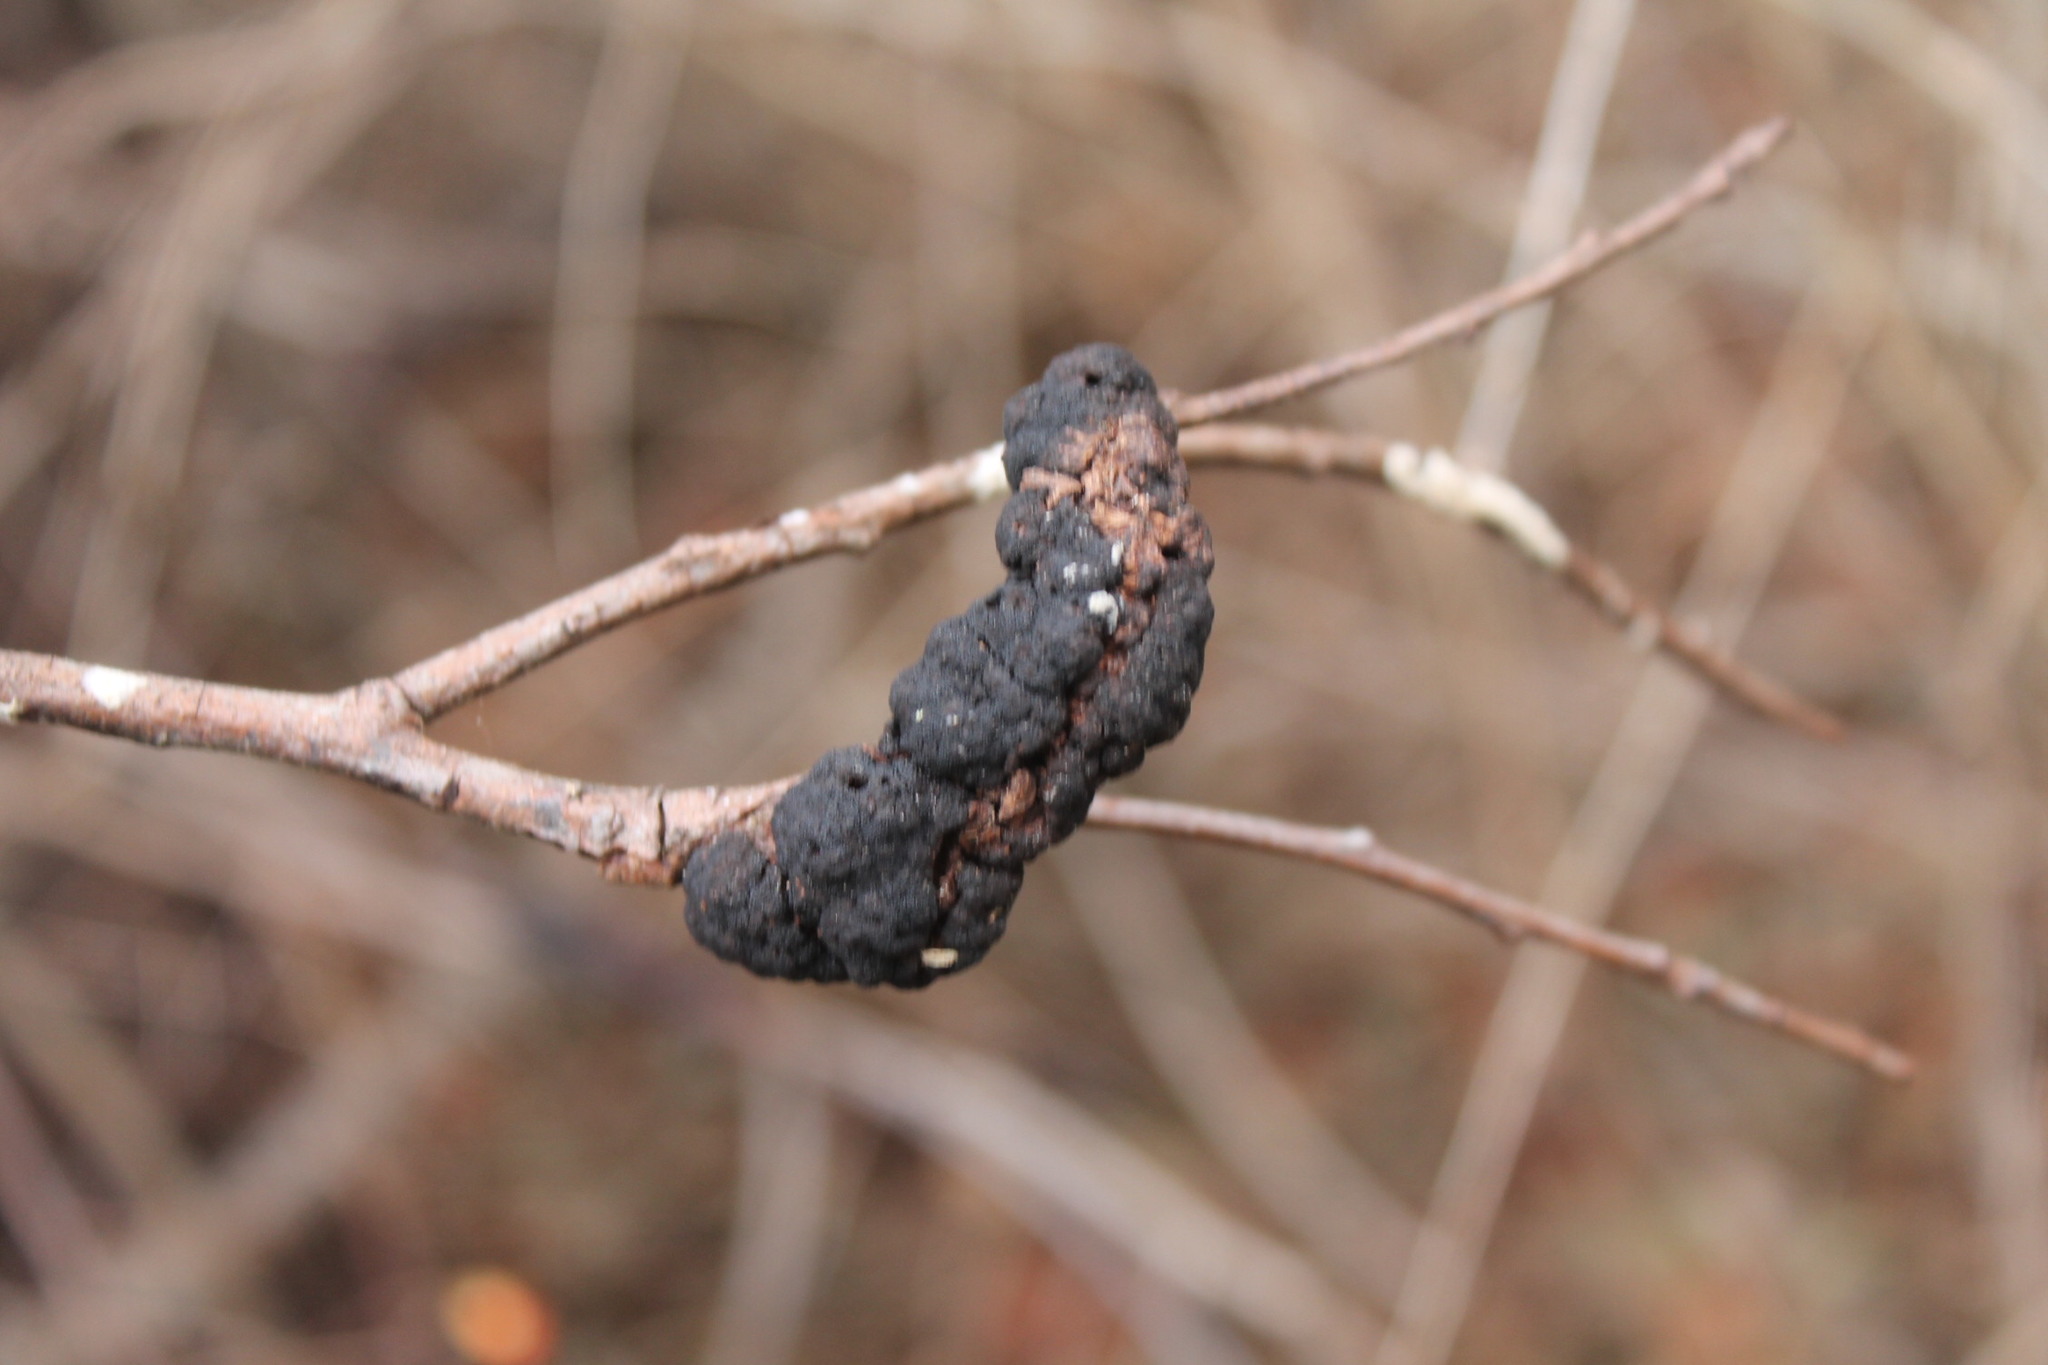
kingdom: Fungi
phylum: Ascomycota
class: Dothideomycetes
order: Venturiales
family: Venturiaceae
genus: Apiosporina
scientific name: Apiosporina morbosa
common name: Black knot
